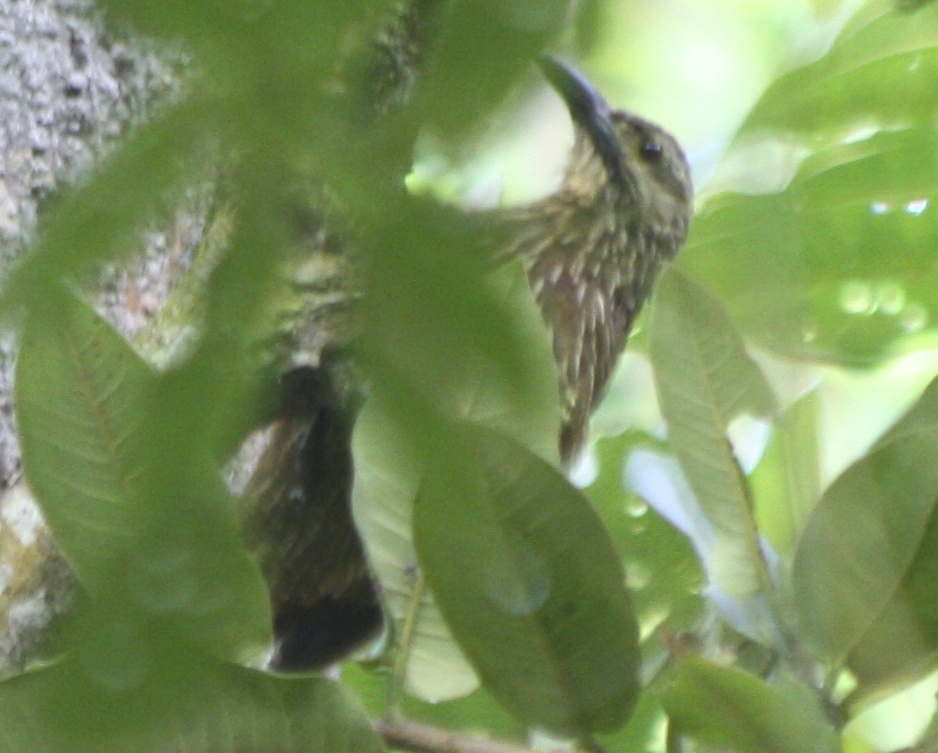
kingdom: Animalia
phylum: Chordata
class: Aves
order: Passeriformes
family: Furnariidae
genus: Xiphocolaptes
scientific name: Xiphocolaptes promeropirhynchus
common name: Strong-billed woodcreeper
